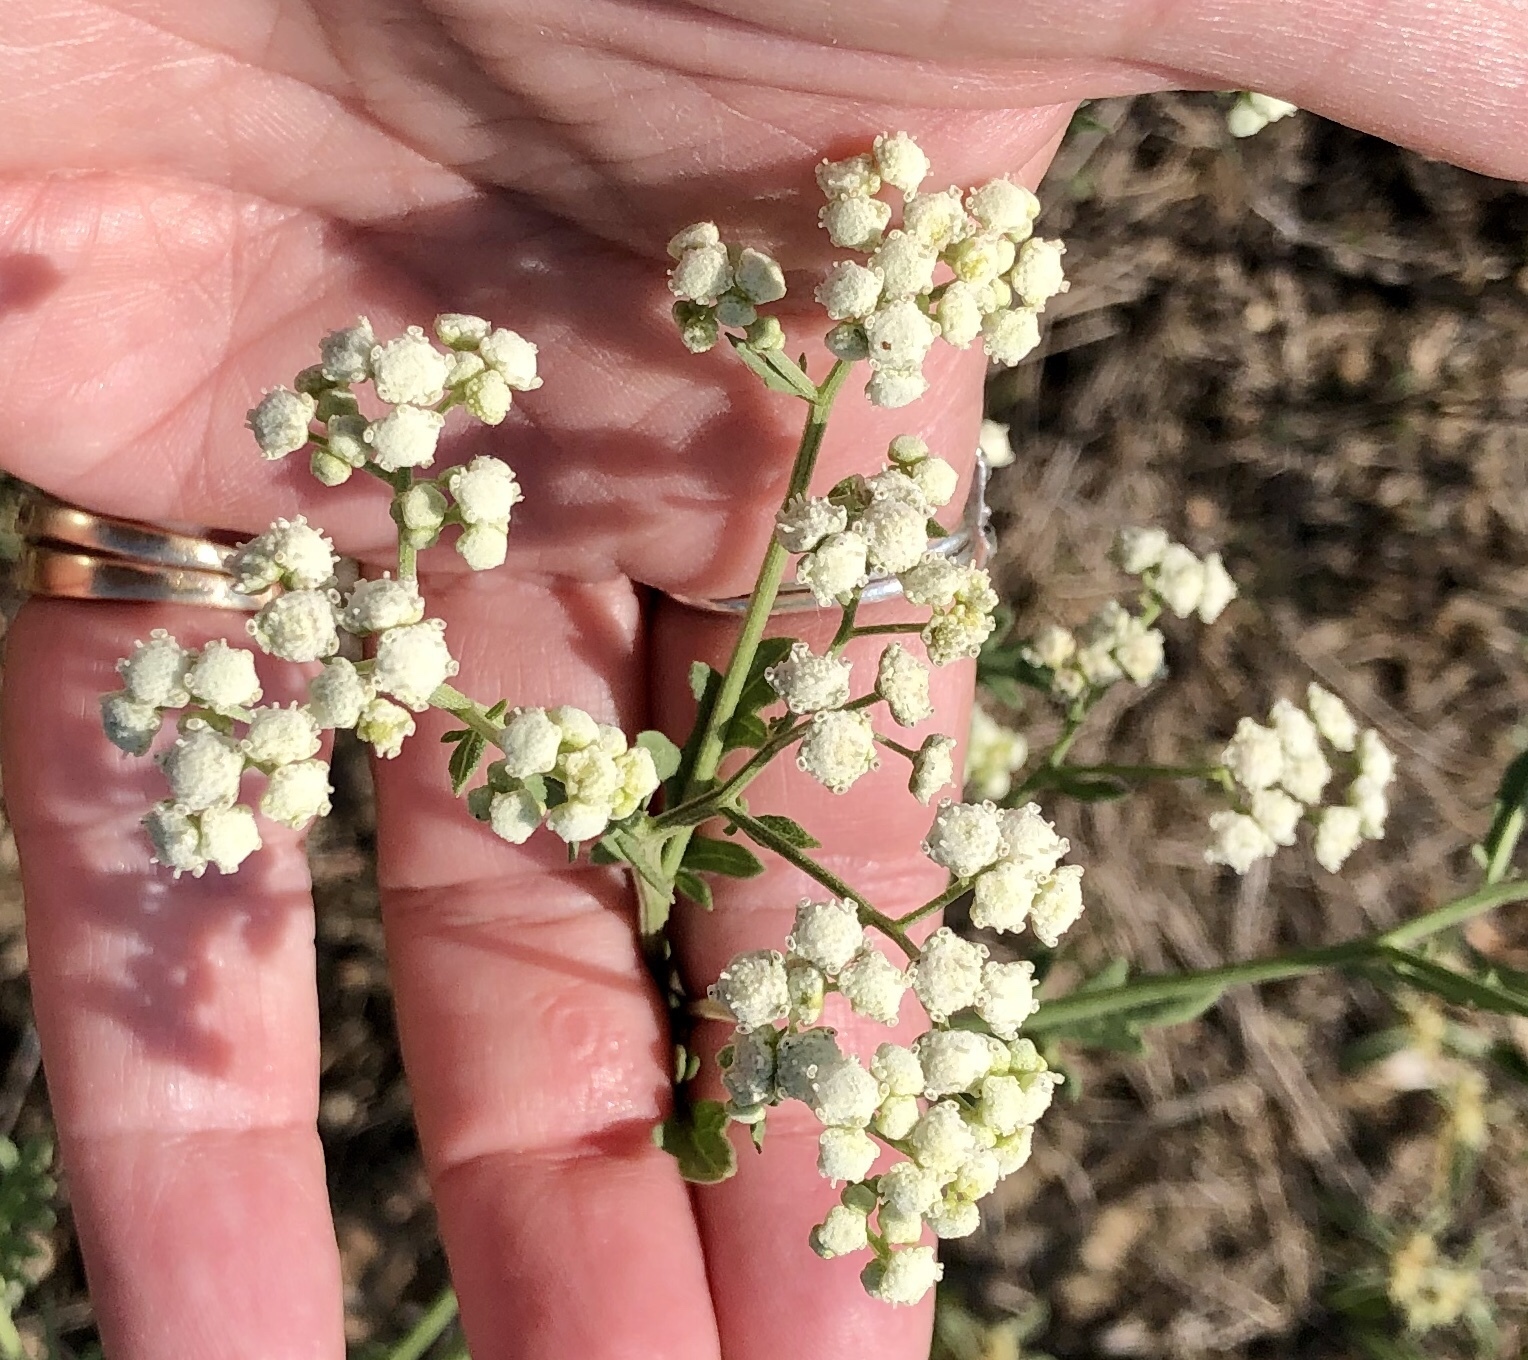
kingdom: Plantae
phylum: Tracheophyta
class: Magnoliopsida
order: Asterales
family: Asteraceae
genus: Parthenium
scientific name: Parthenium confertum
